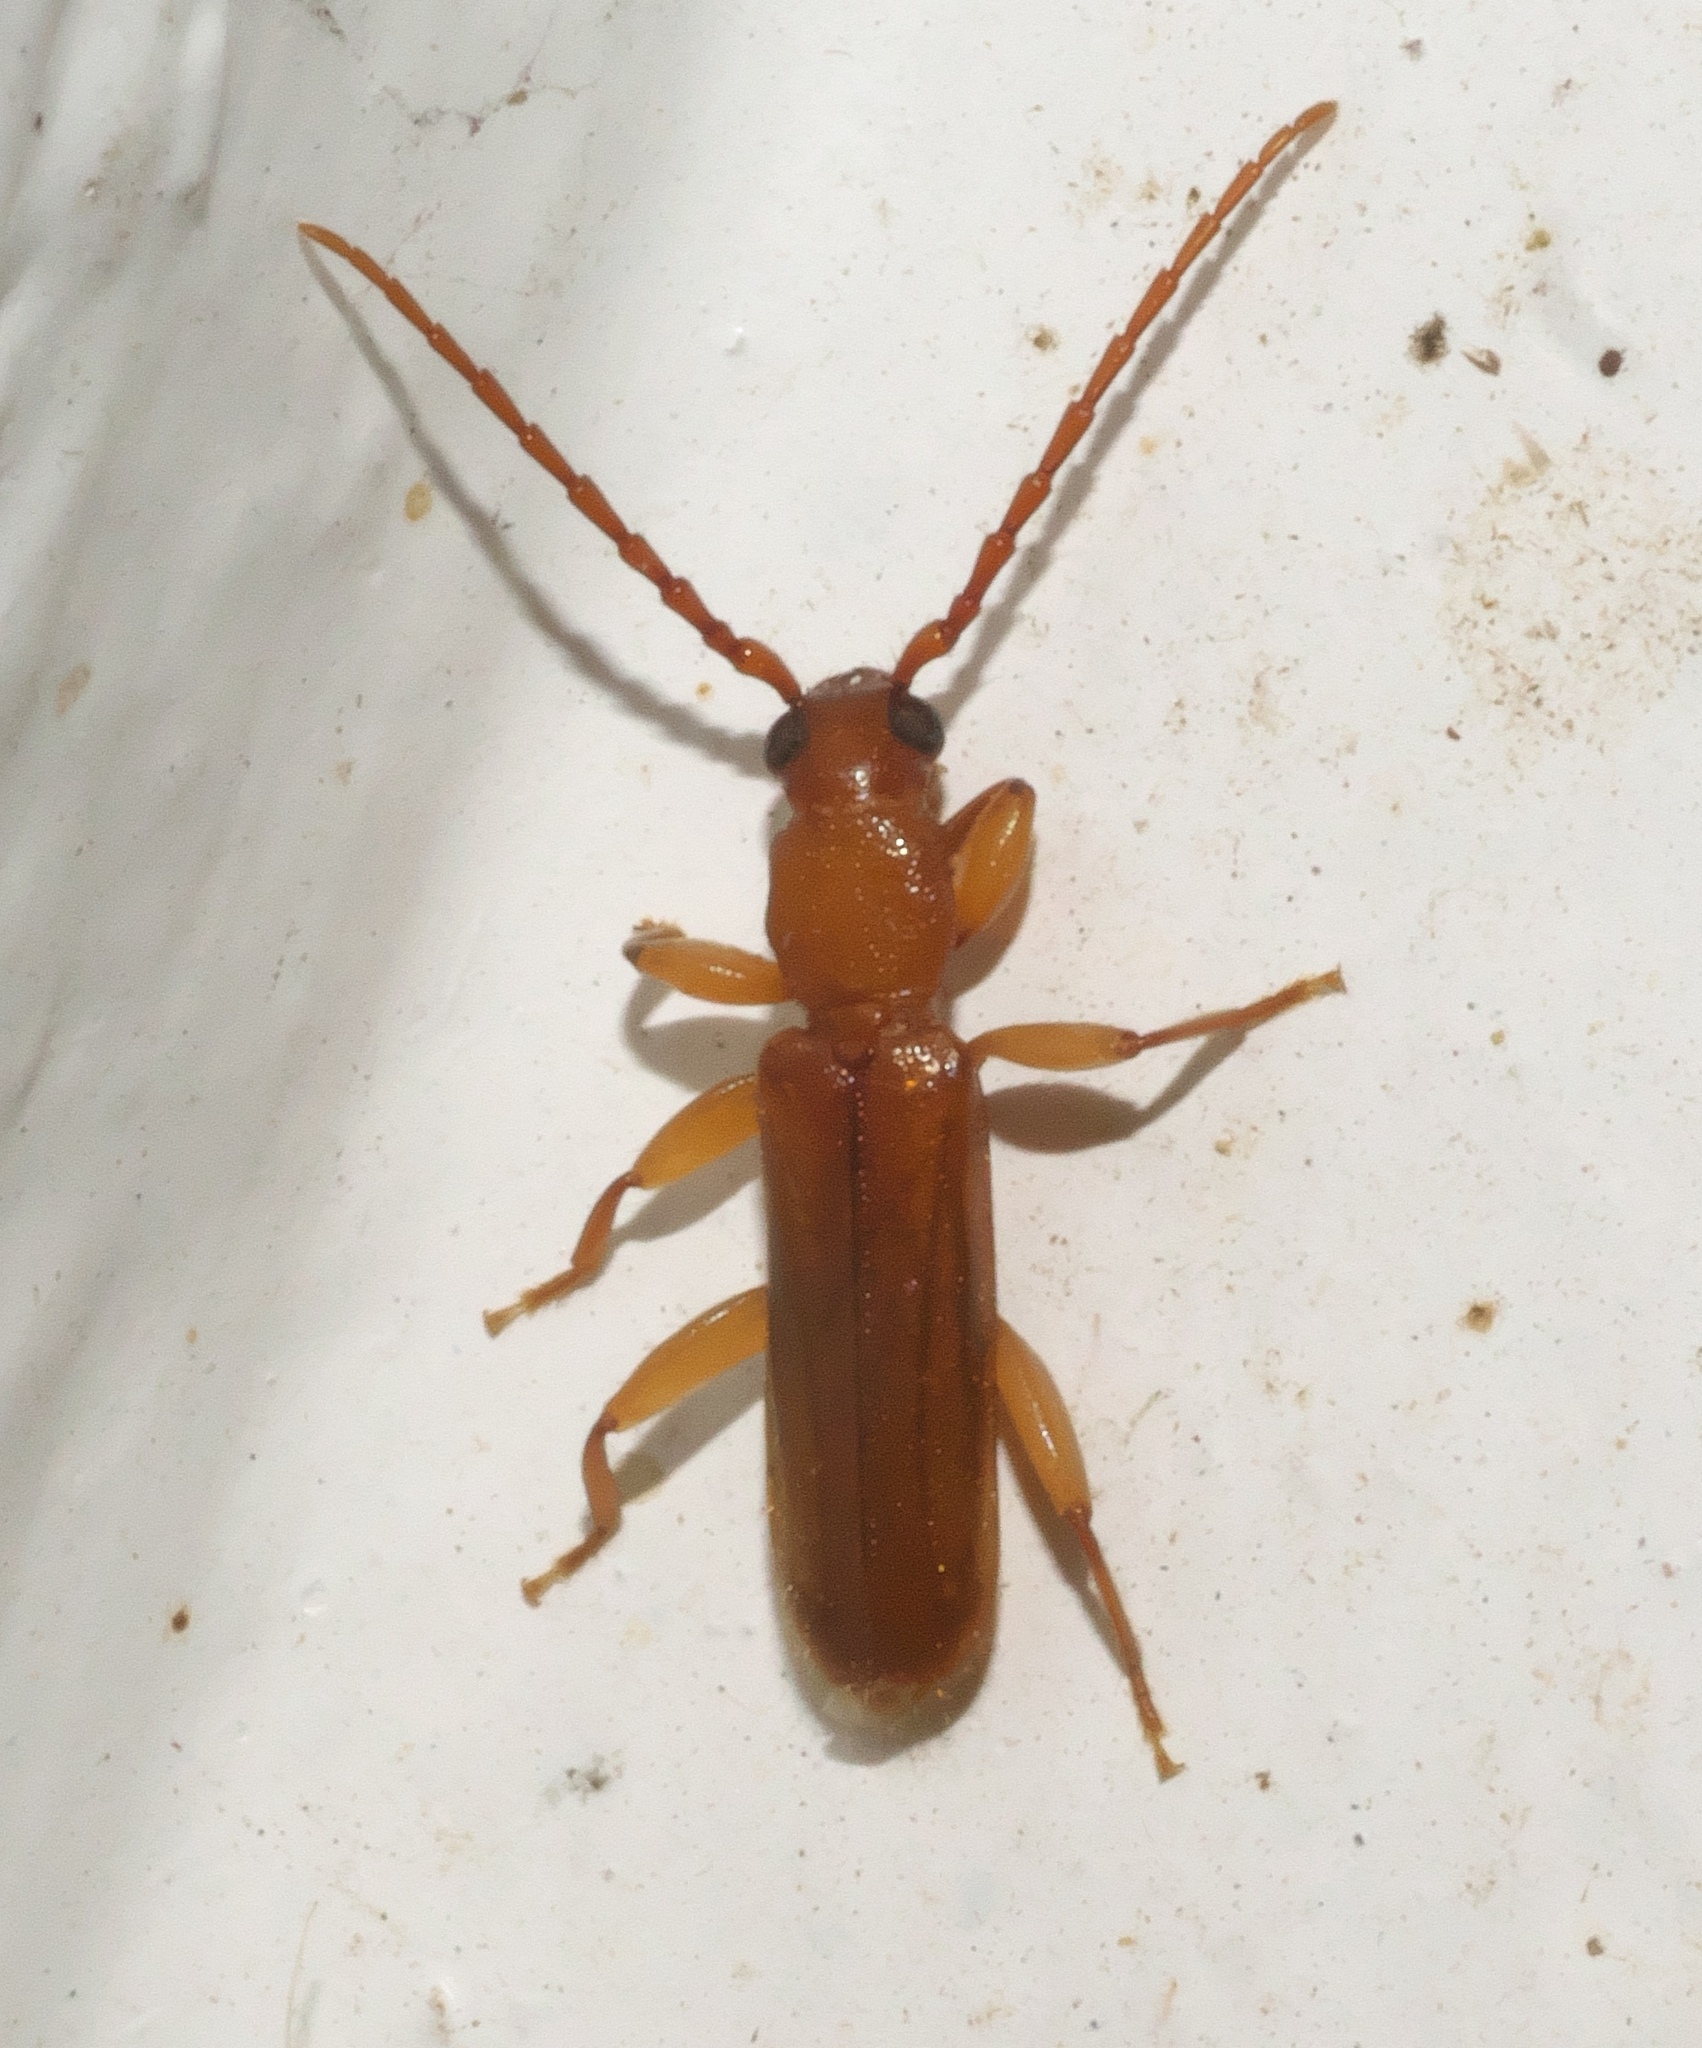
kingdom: Animalia
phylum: Arthropoda
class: Insecta
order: Coleoptera
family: Cerambycidae
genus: Smodicum
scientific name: Smodicum cucujiforme
